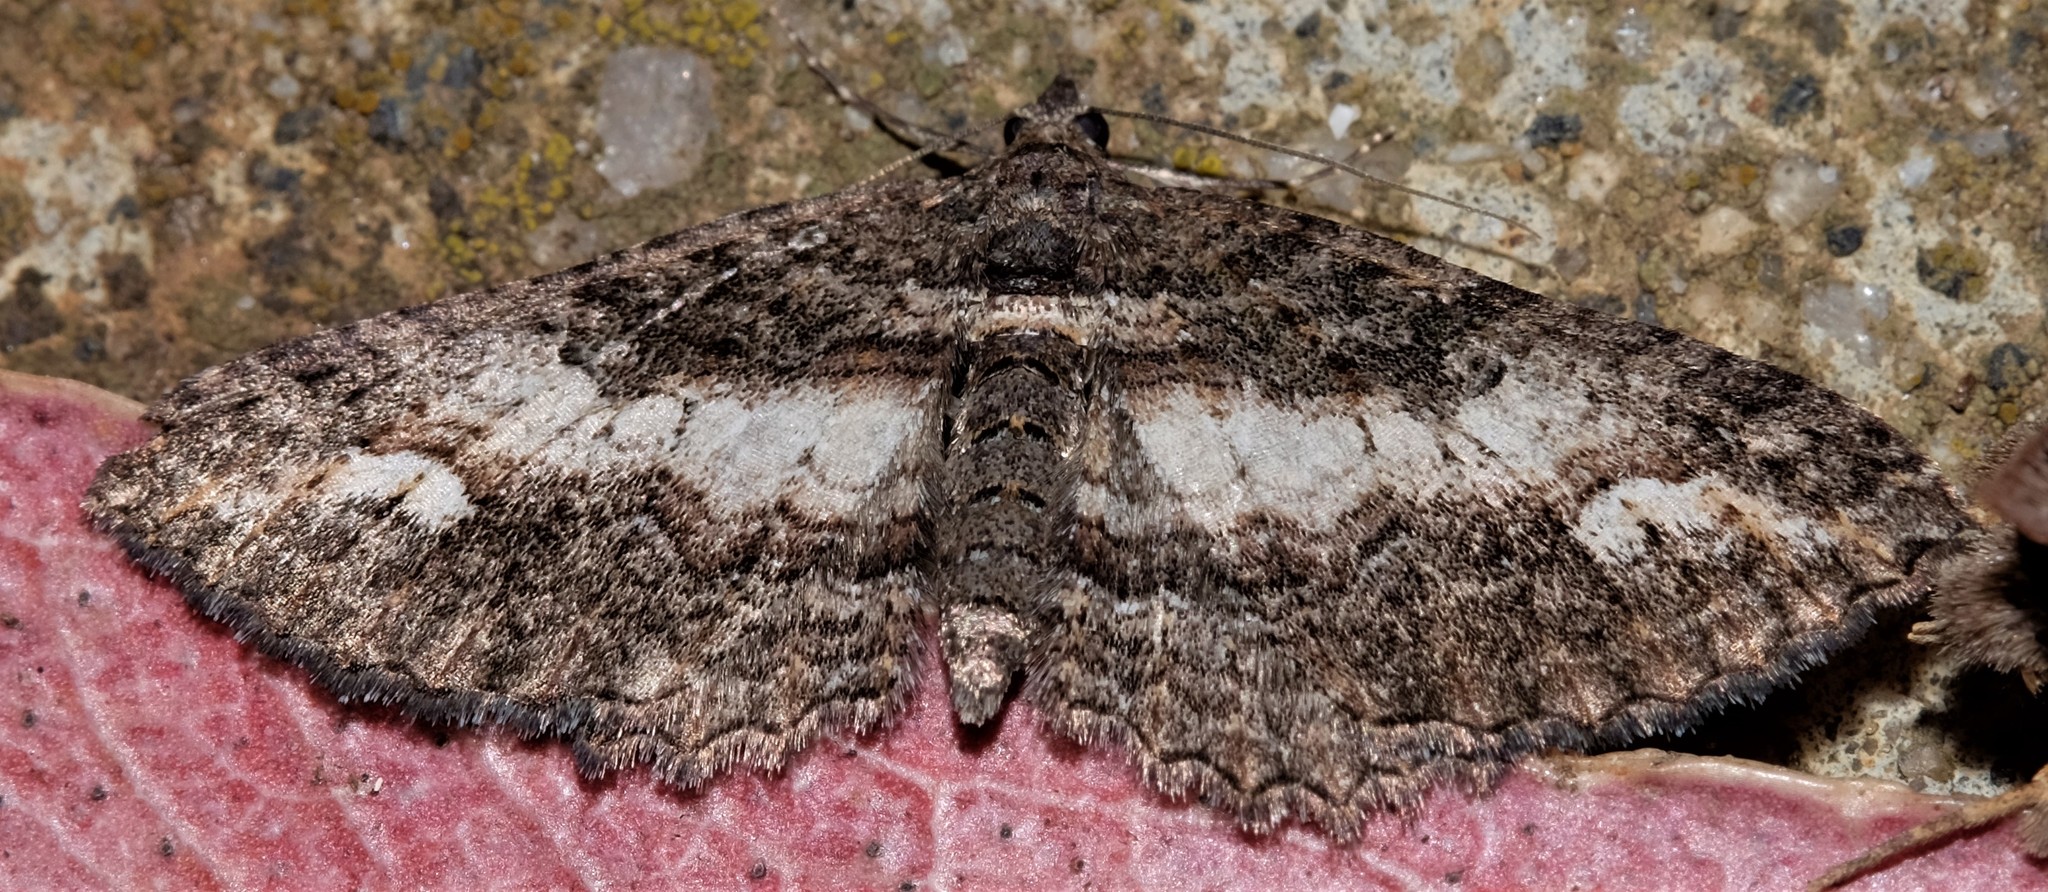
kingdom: Animalia
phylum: Arthropoda
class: Insecta
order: Lepidoptera
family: Geometridae
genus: Eupithecia
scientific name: Eupithecia Eucymatoge scotodes
